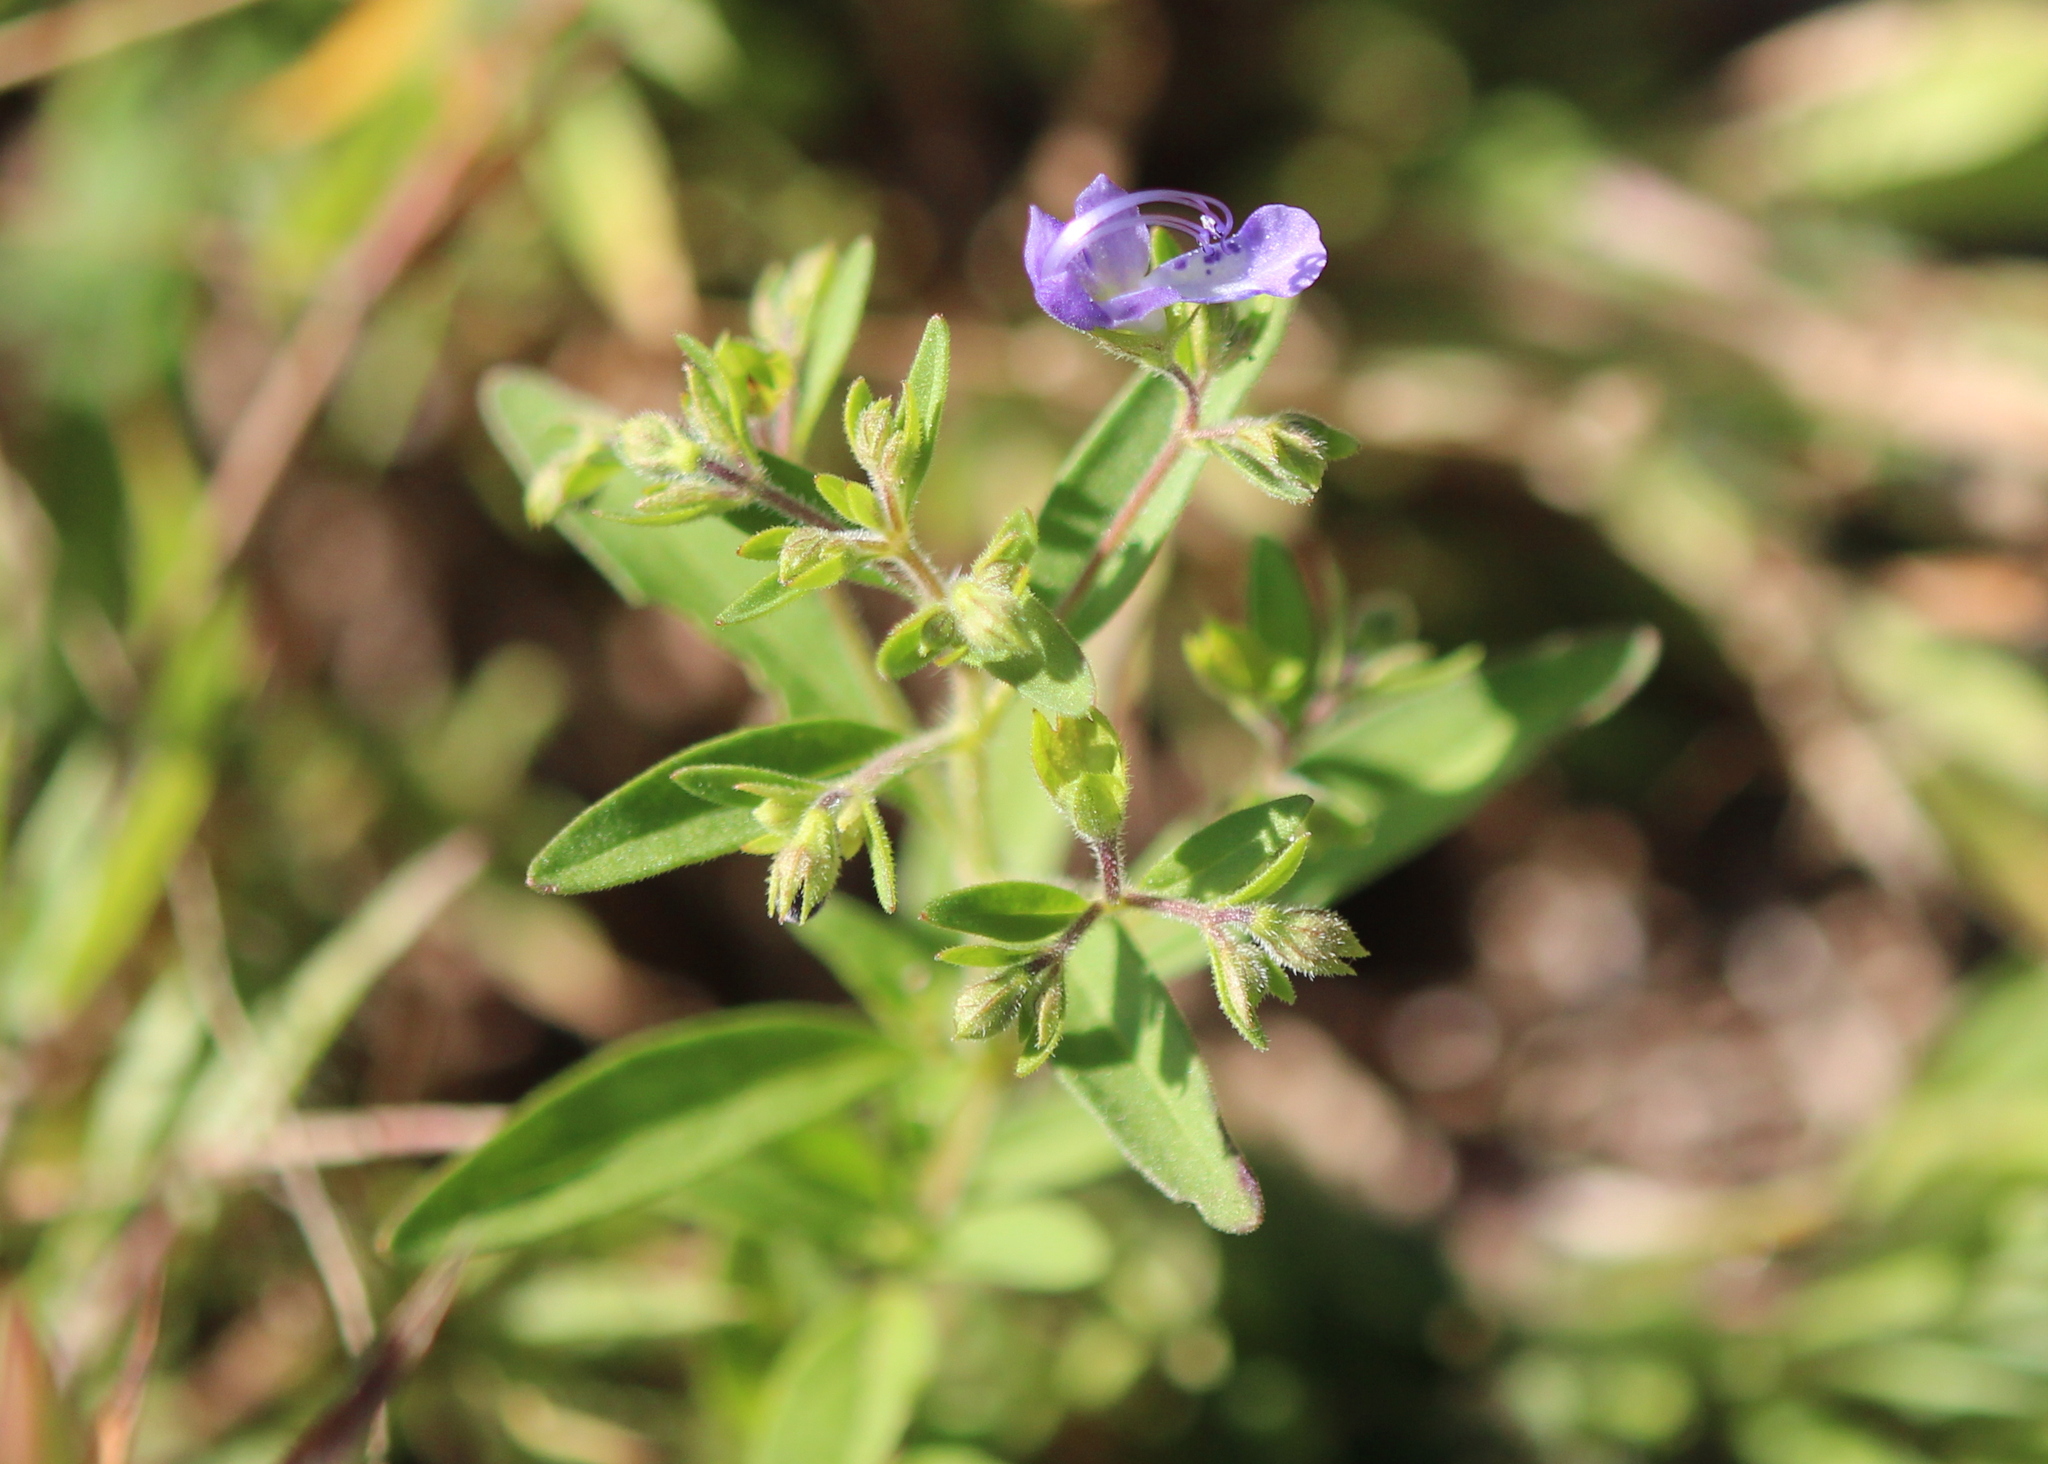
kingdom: Plantae
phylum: Tracheophyta
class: Magnoliopsida
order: Lamiales
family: Lamiaceae
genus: Trichostema
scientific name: Trichostema dichotomum
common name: Bastard pennyroyal
